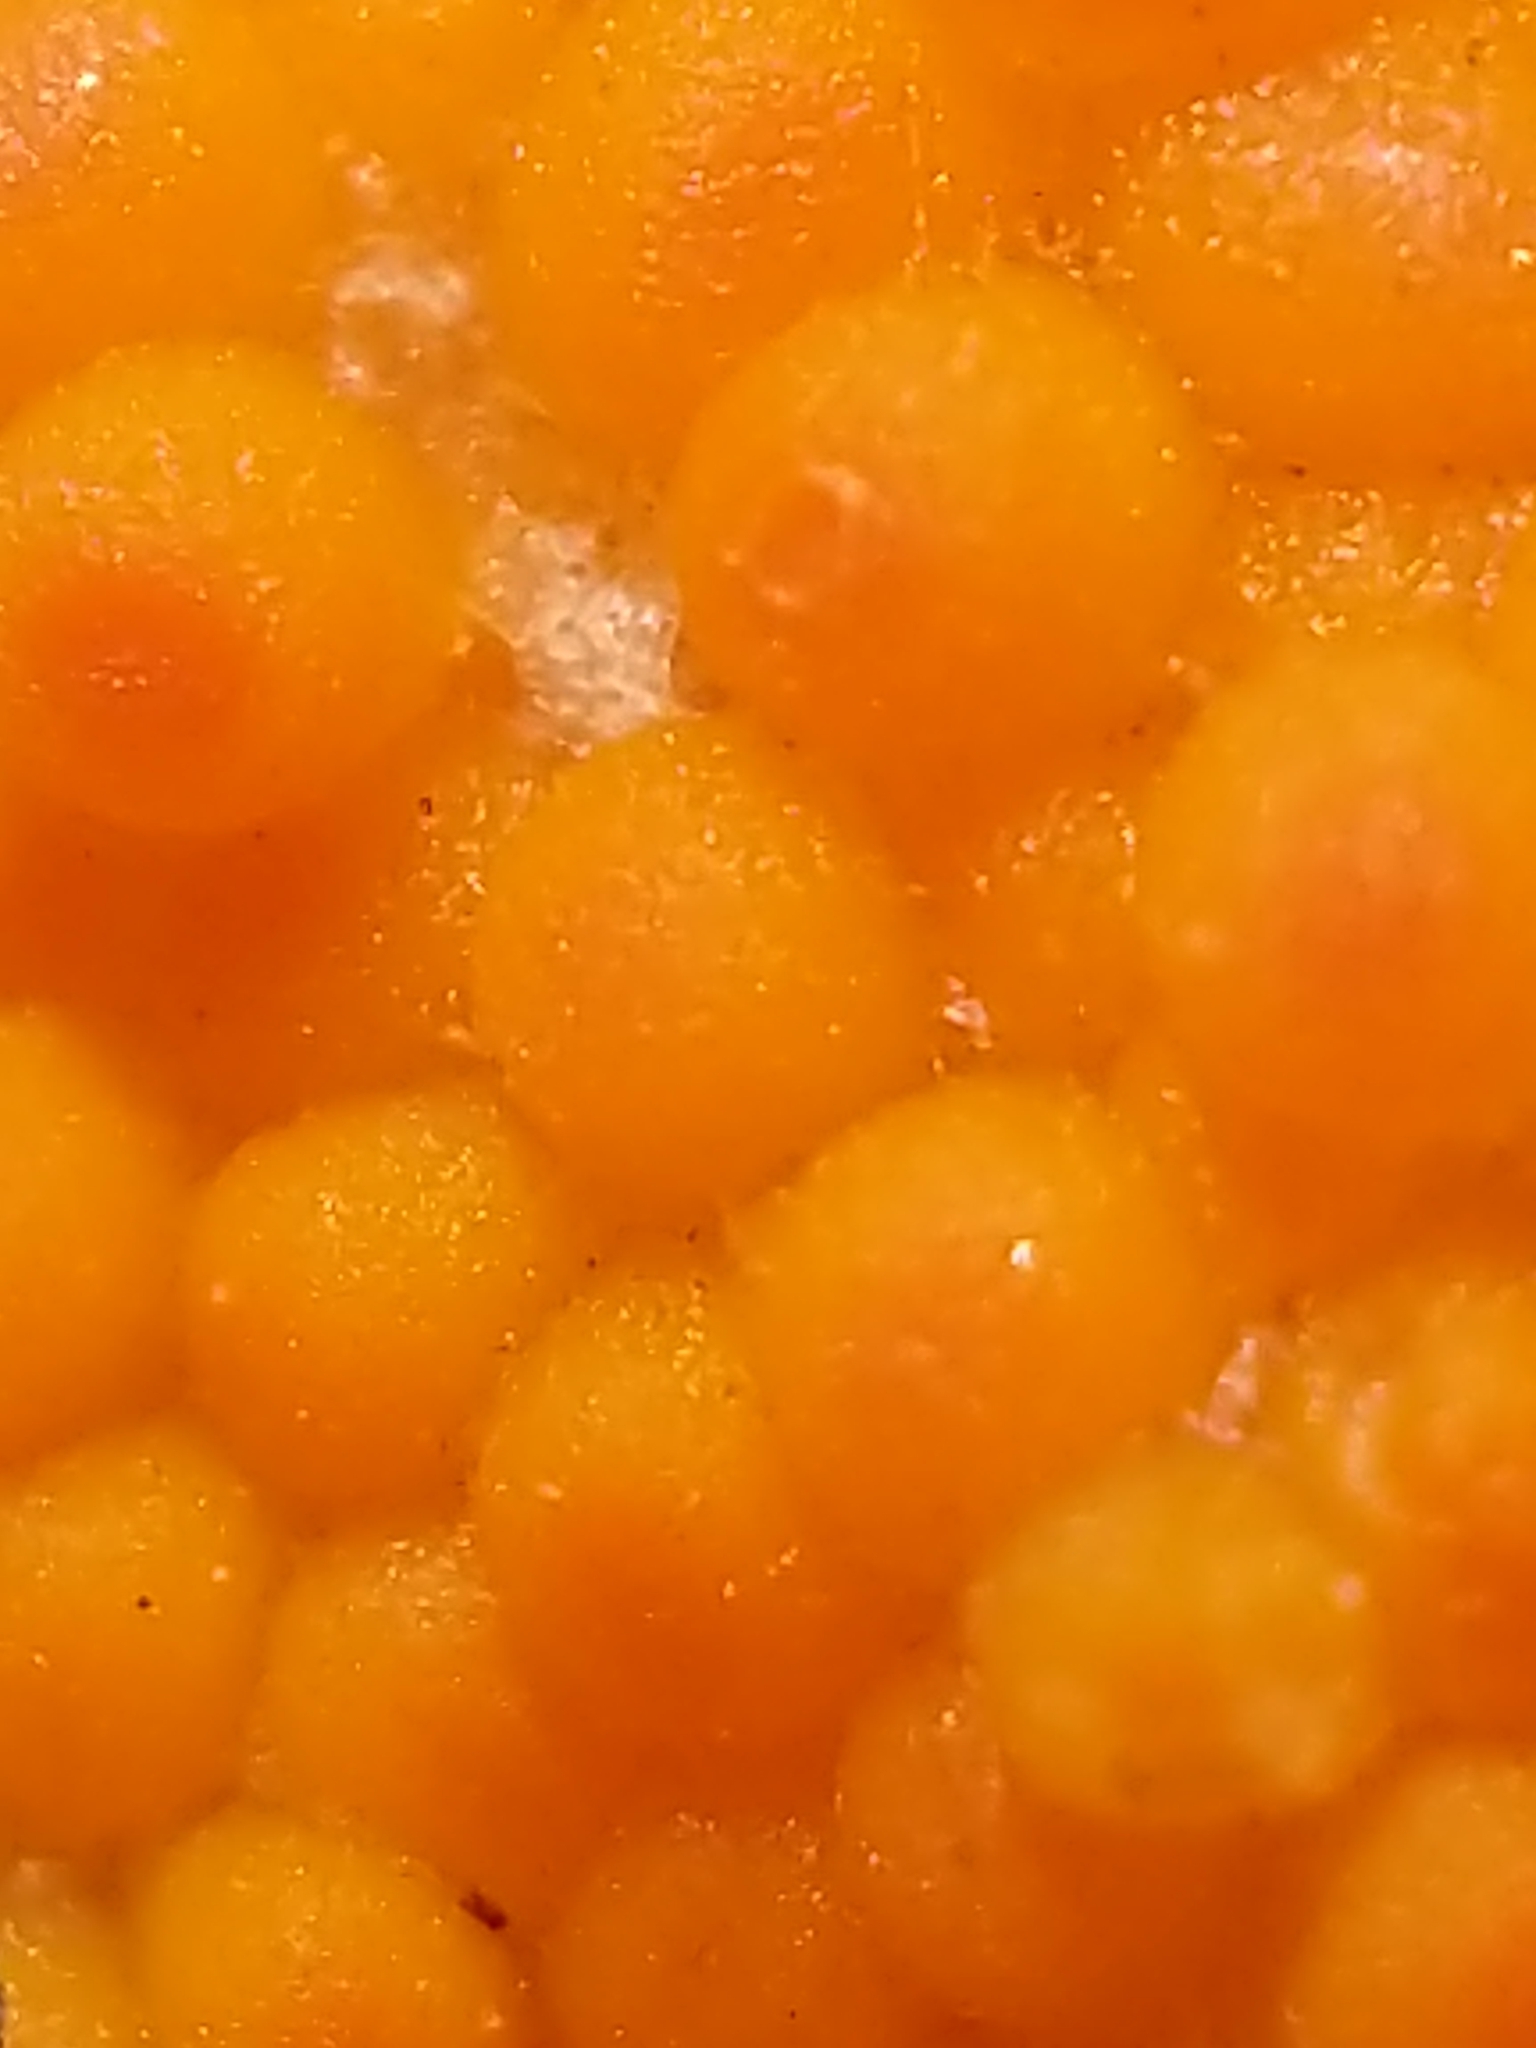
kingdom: Fungi
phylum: Ascomycota
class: Pezizomycetes
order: Pezizales
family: Pyronemataceae
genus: Byssonectria
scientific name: Byssonectria terrestris
